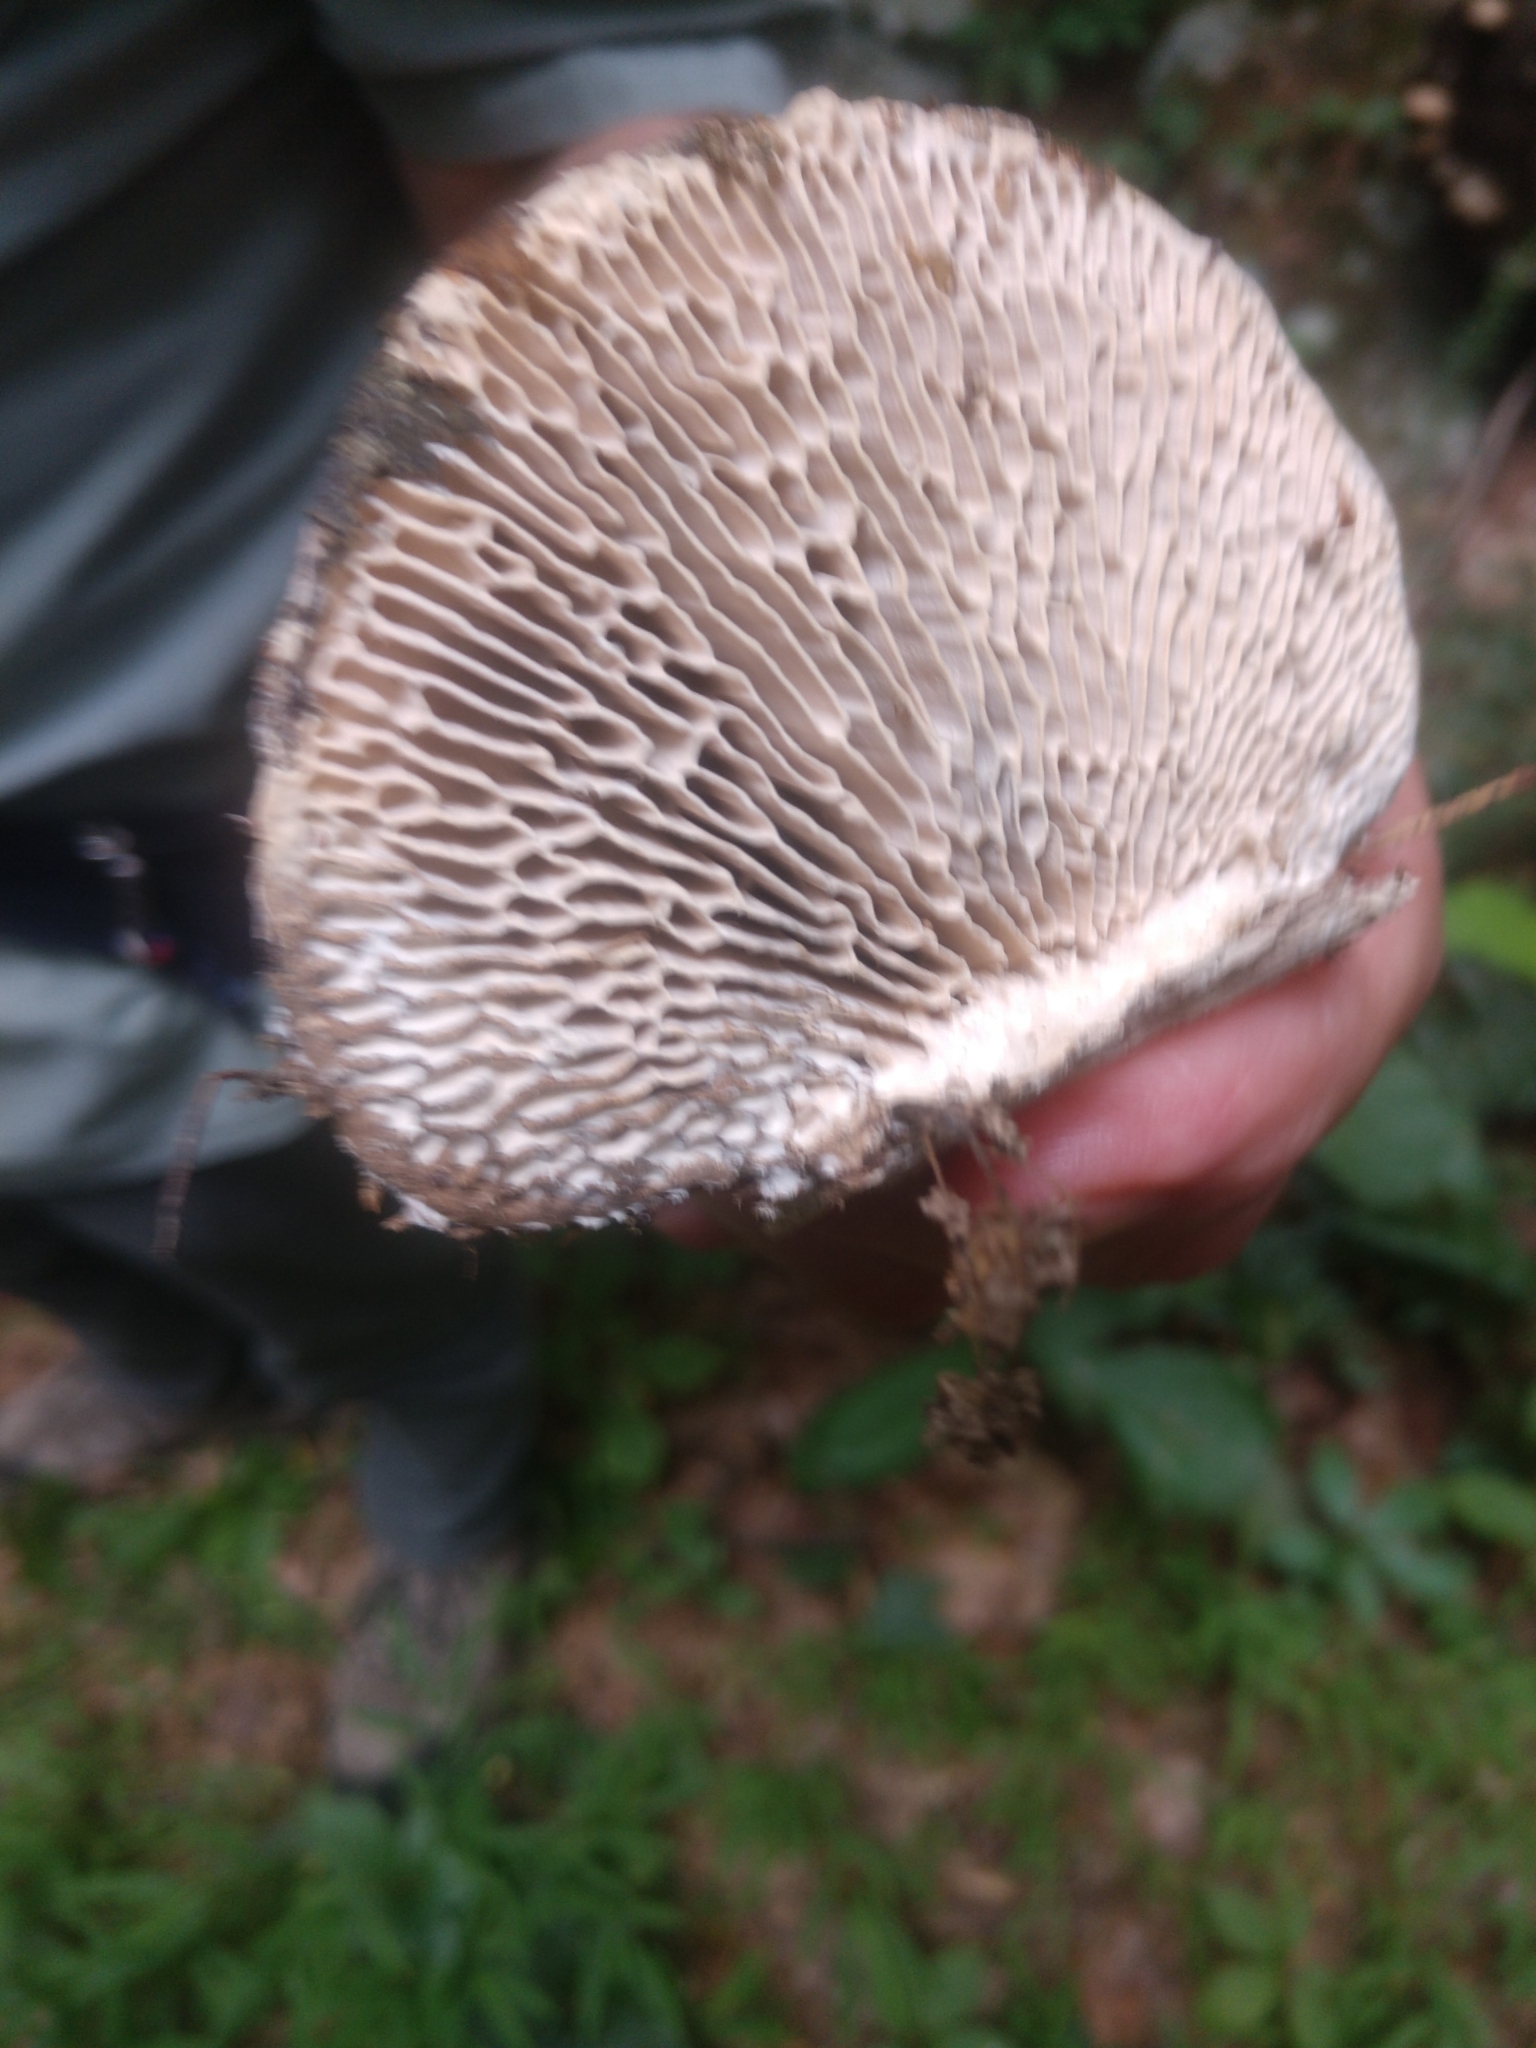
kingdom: Fungi
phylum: Basidiomycota
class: Agaricomycetes
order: Polyporales
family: Fomitopsidaceae
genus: Fomitopsis
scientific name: Fomitopsis
